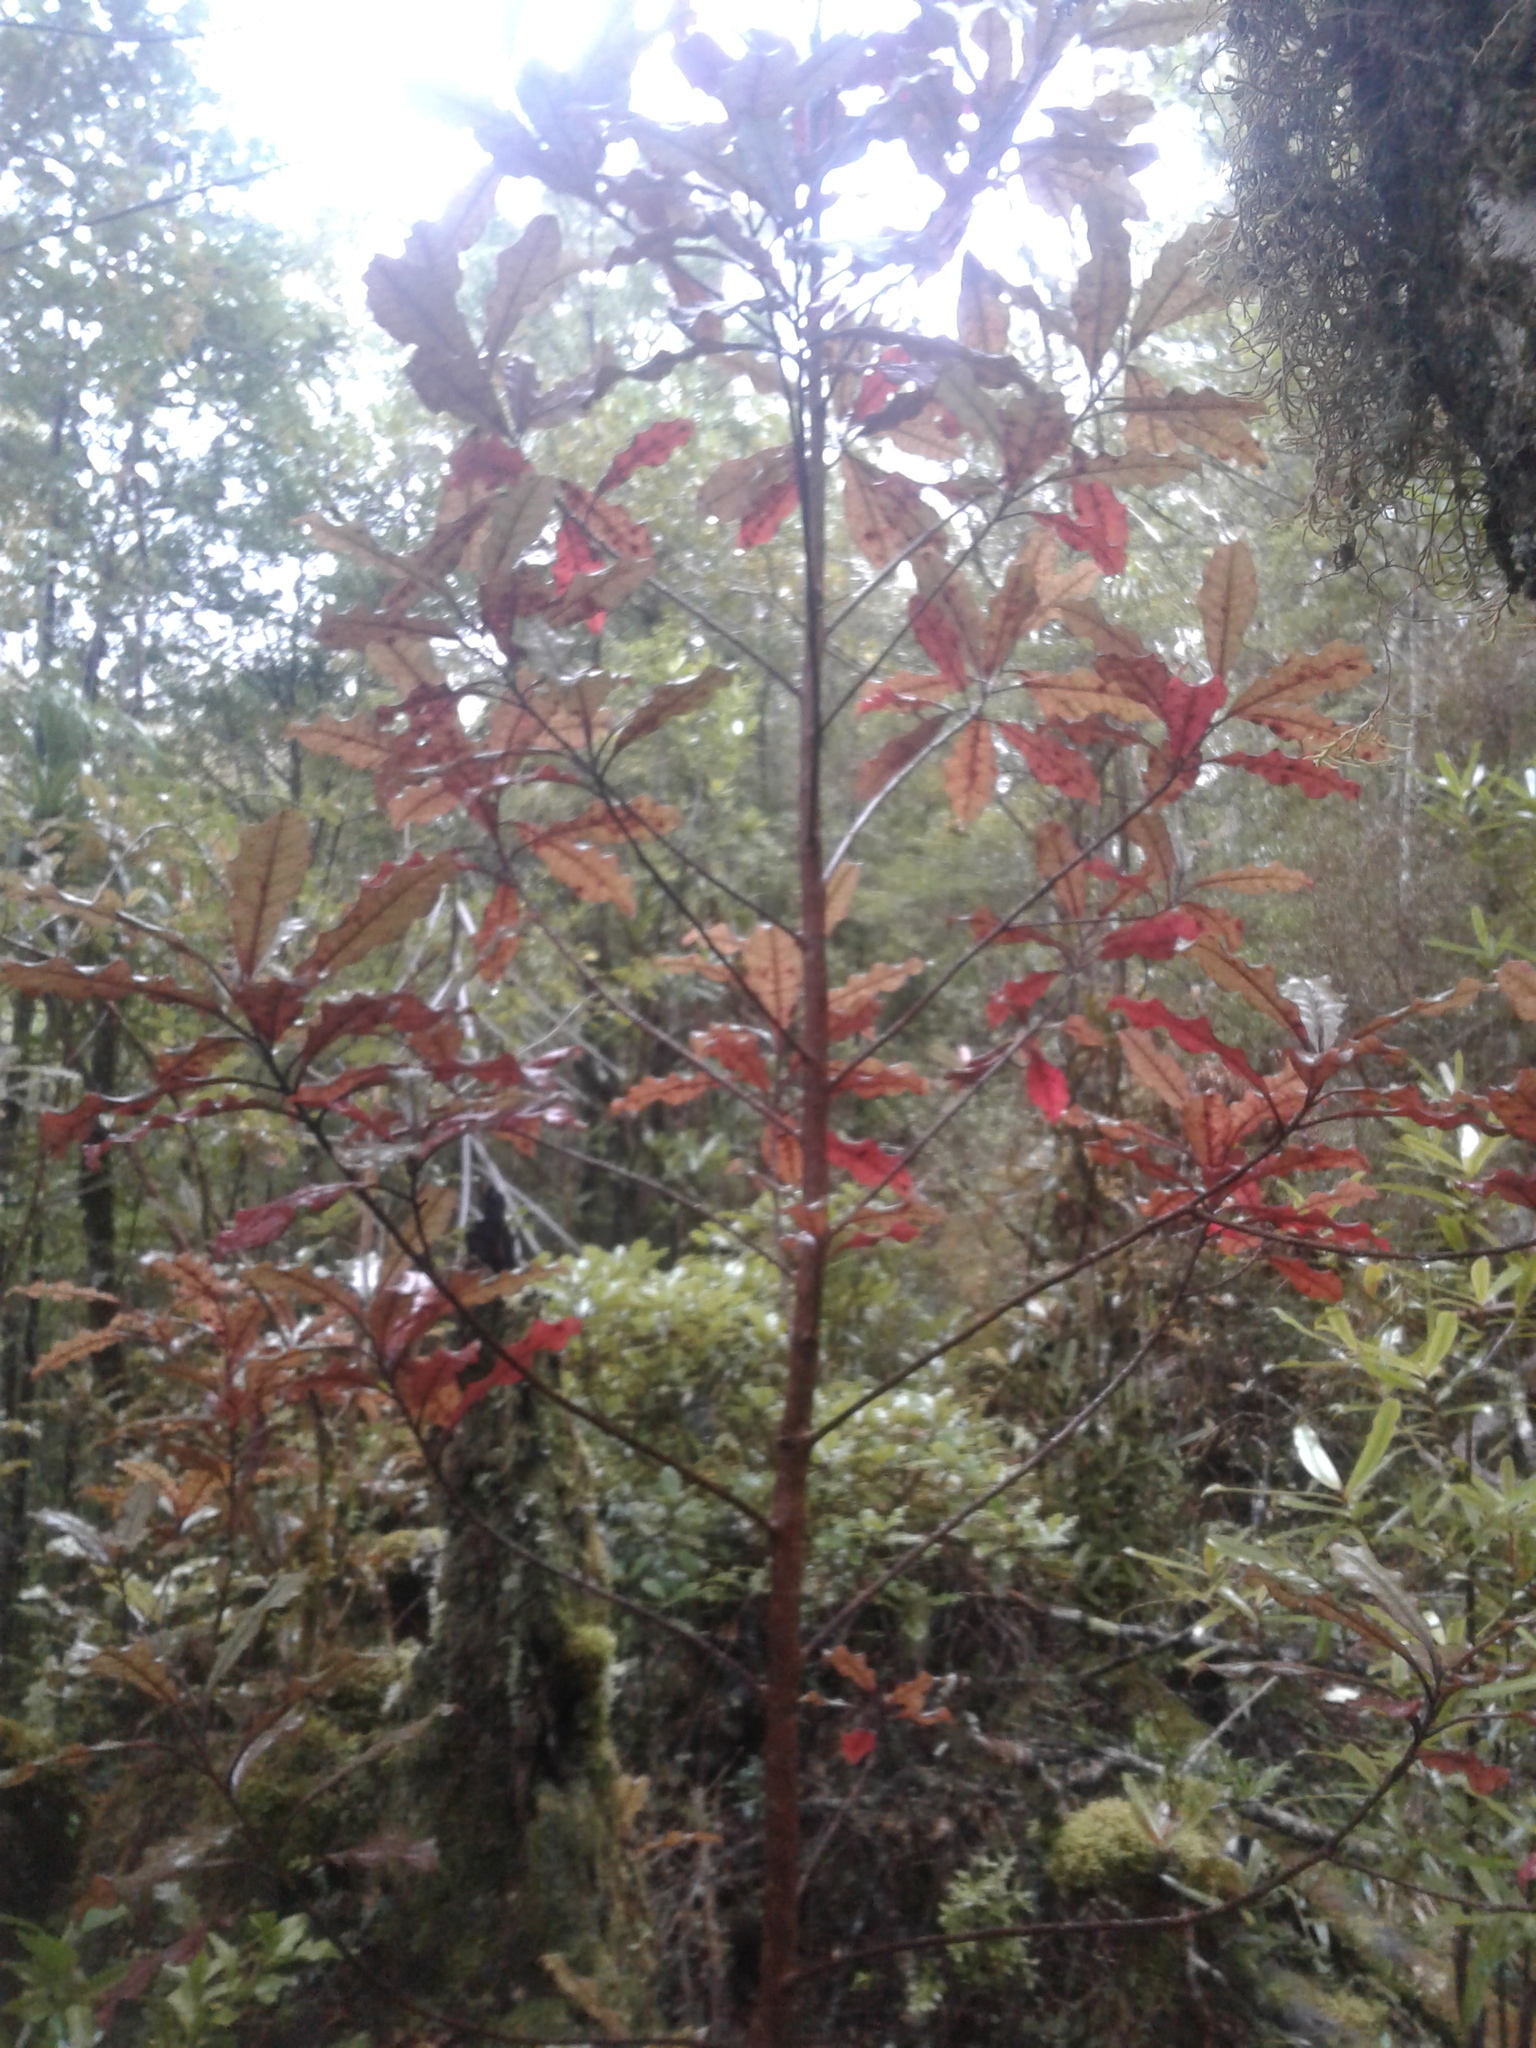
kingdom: Plantae
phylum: Tracheophyta
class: Magnoliopsida
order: Paracryphiales
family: Paracryphiaceae
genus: Quintinia
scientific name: Quintinia serrata
